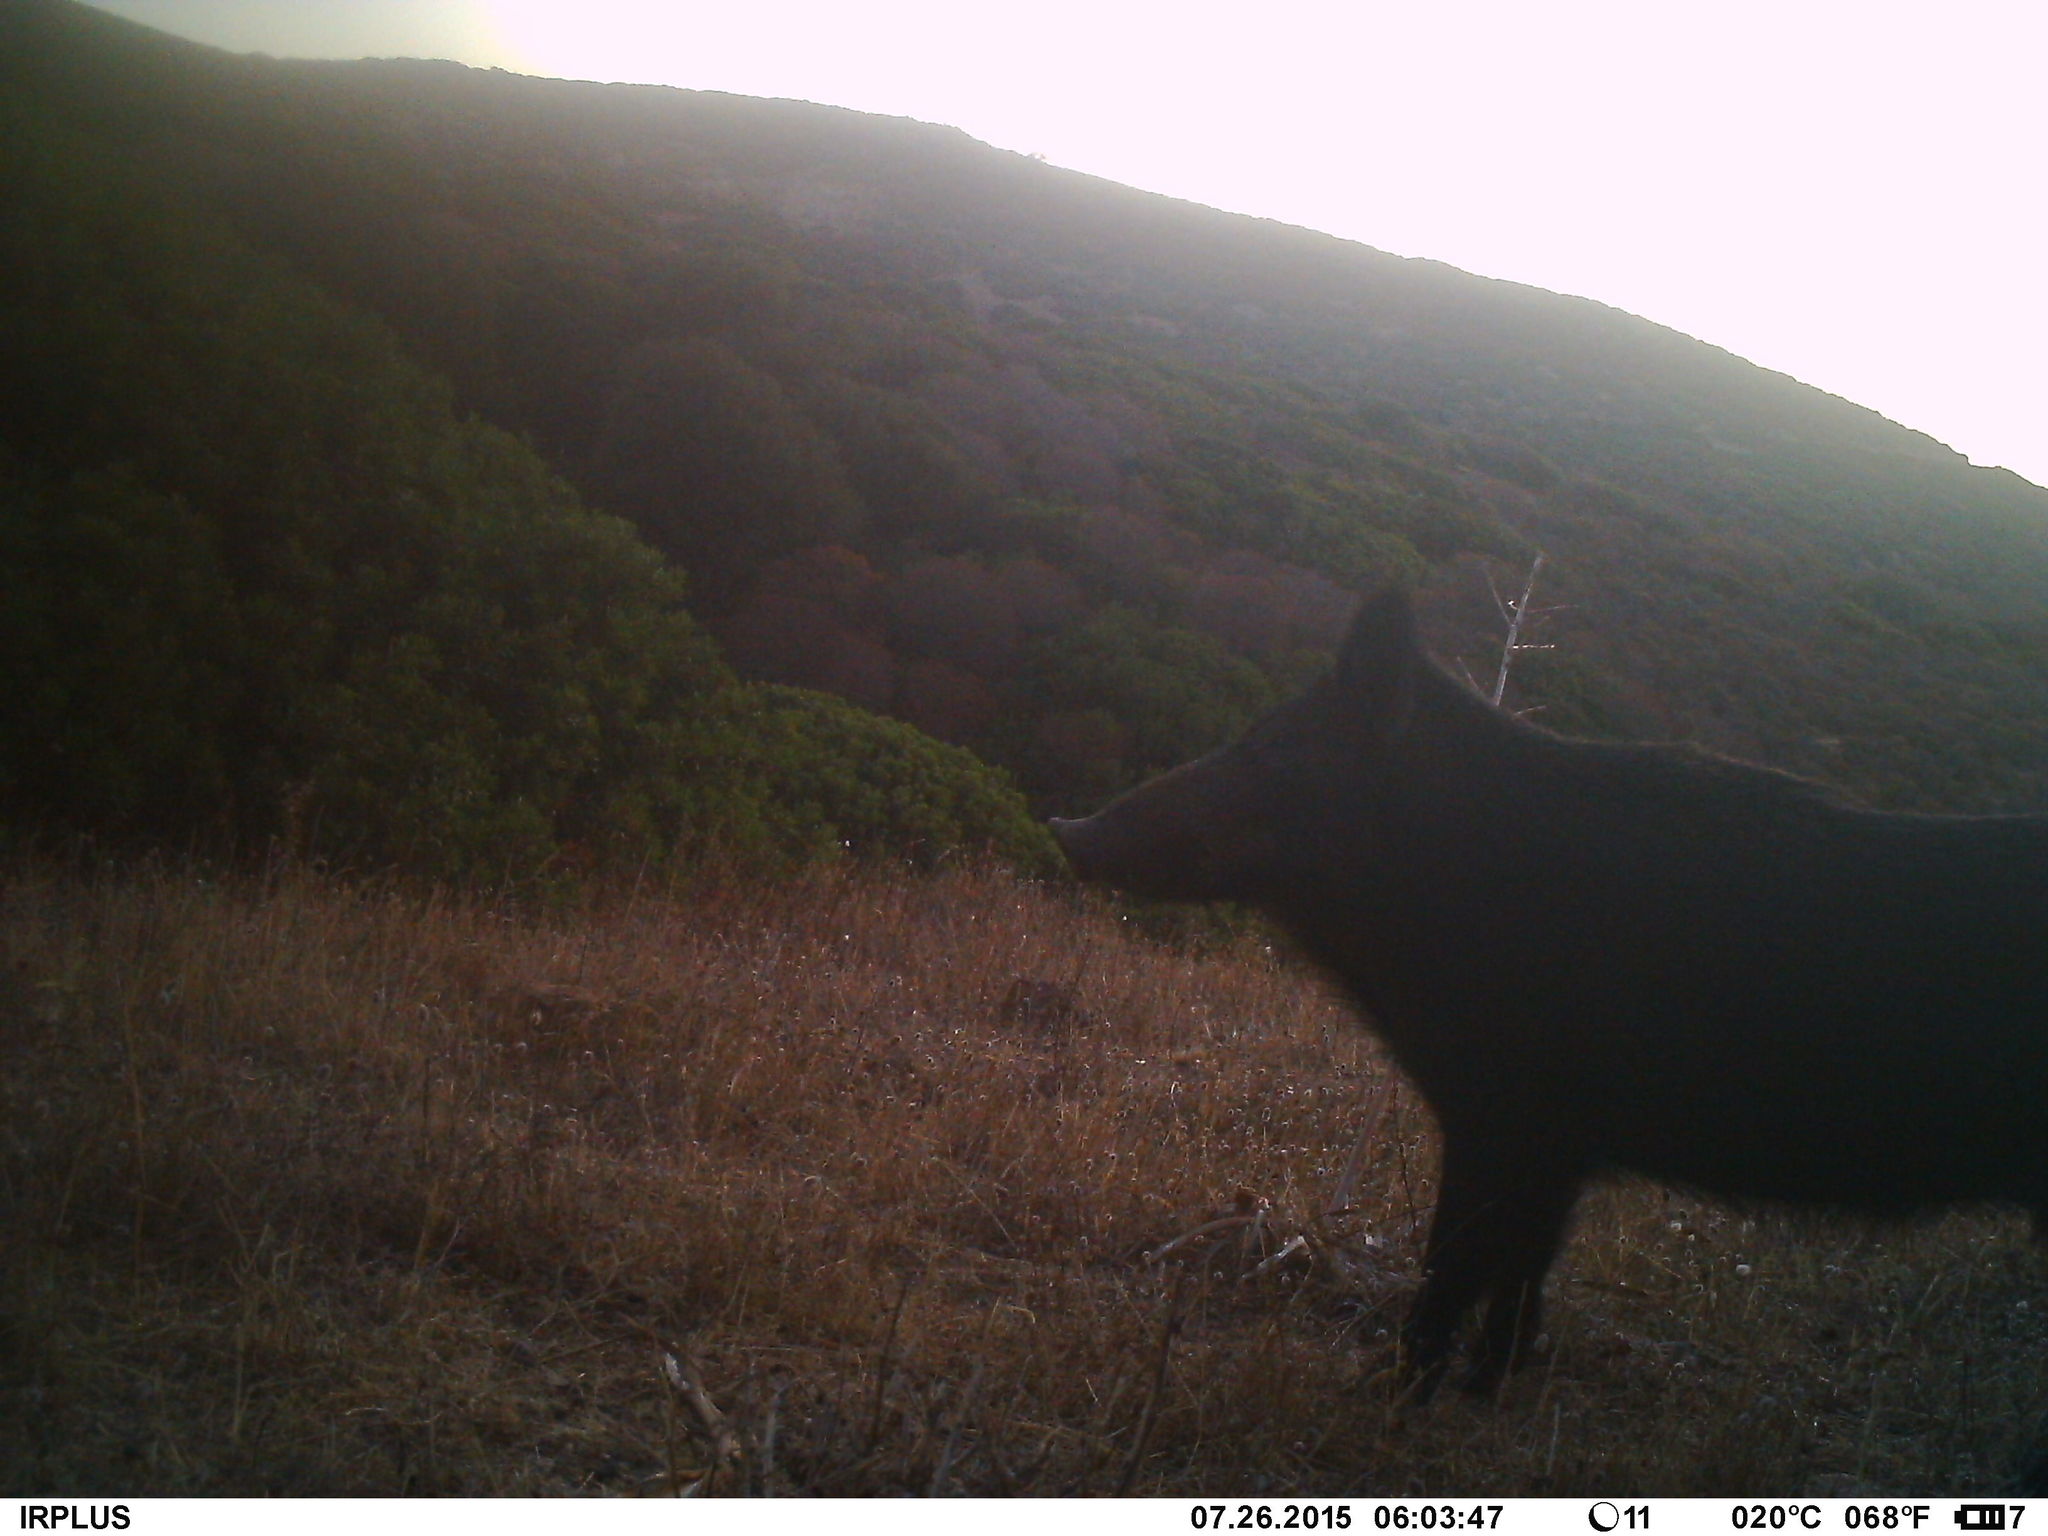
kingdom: Animalia
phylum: Chordata
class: Mammalia
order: Artiodactyla
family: Suidae
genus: Sus
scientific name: Sus scrofa
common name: Wild boar
